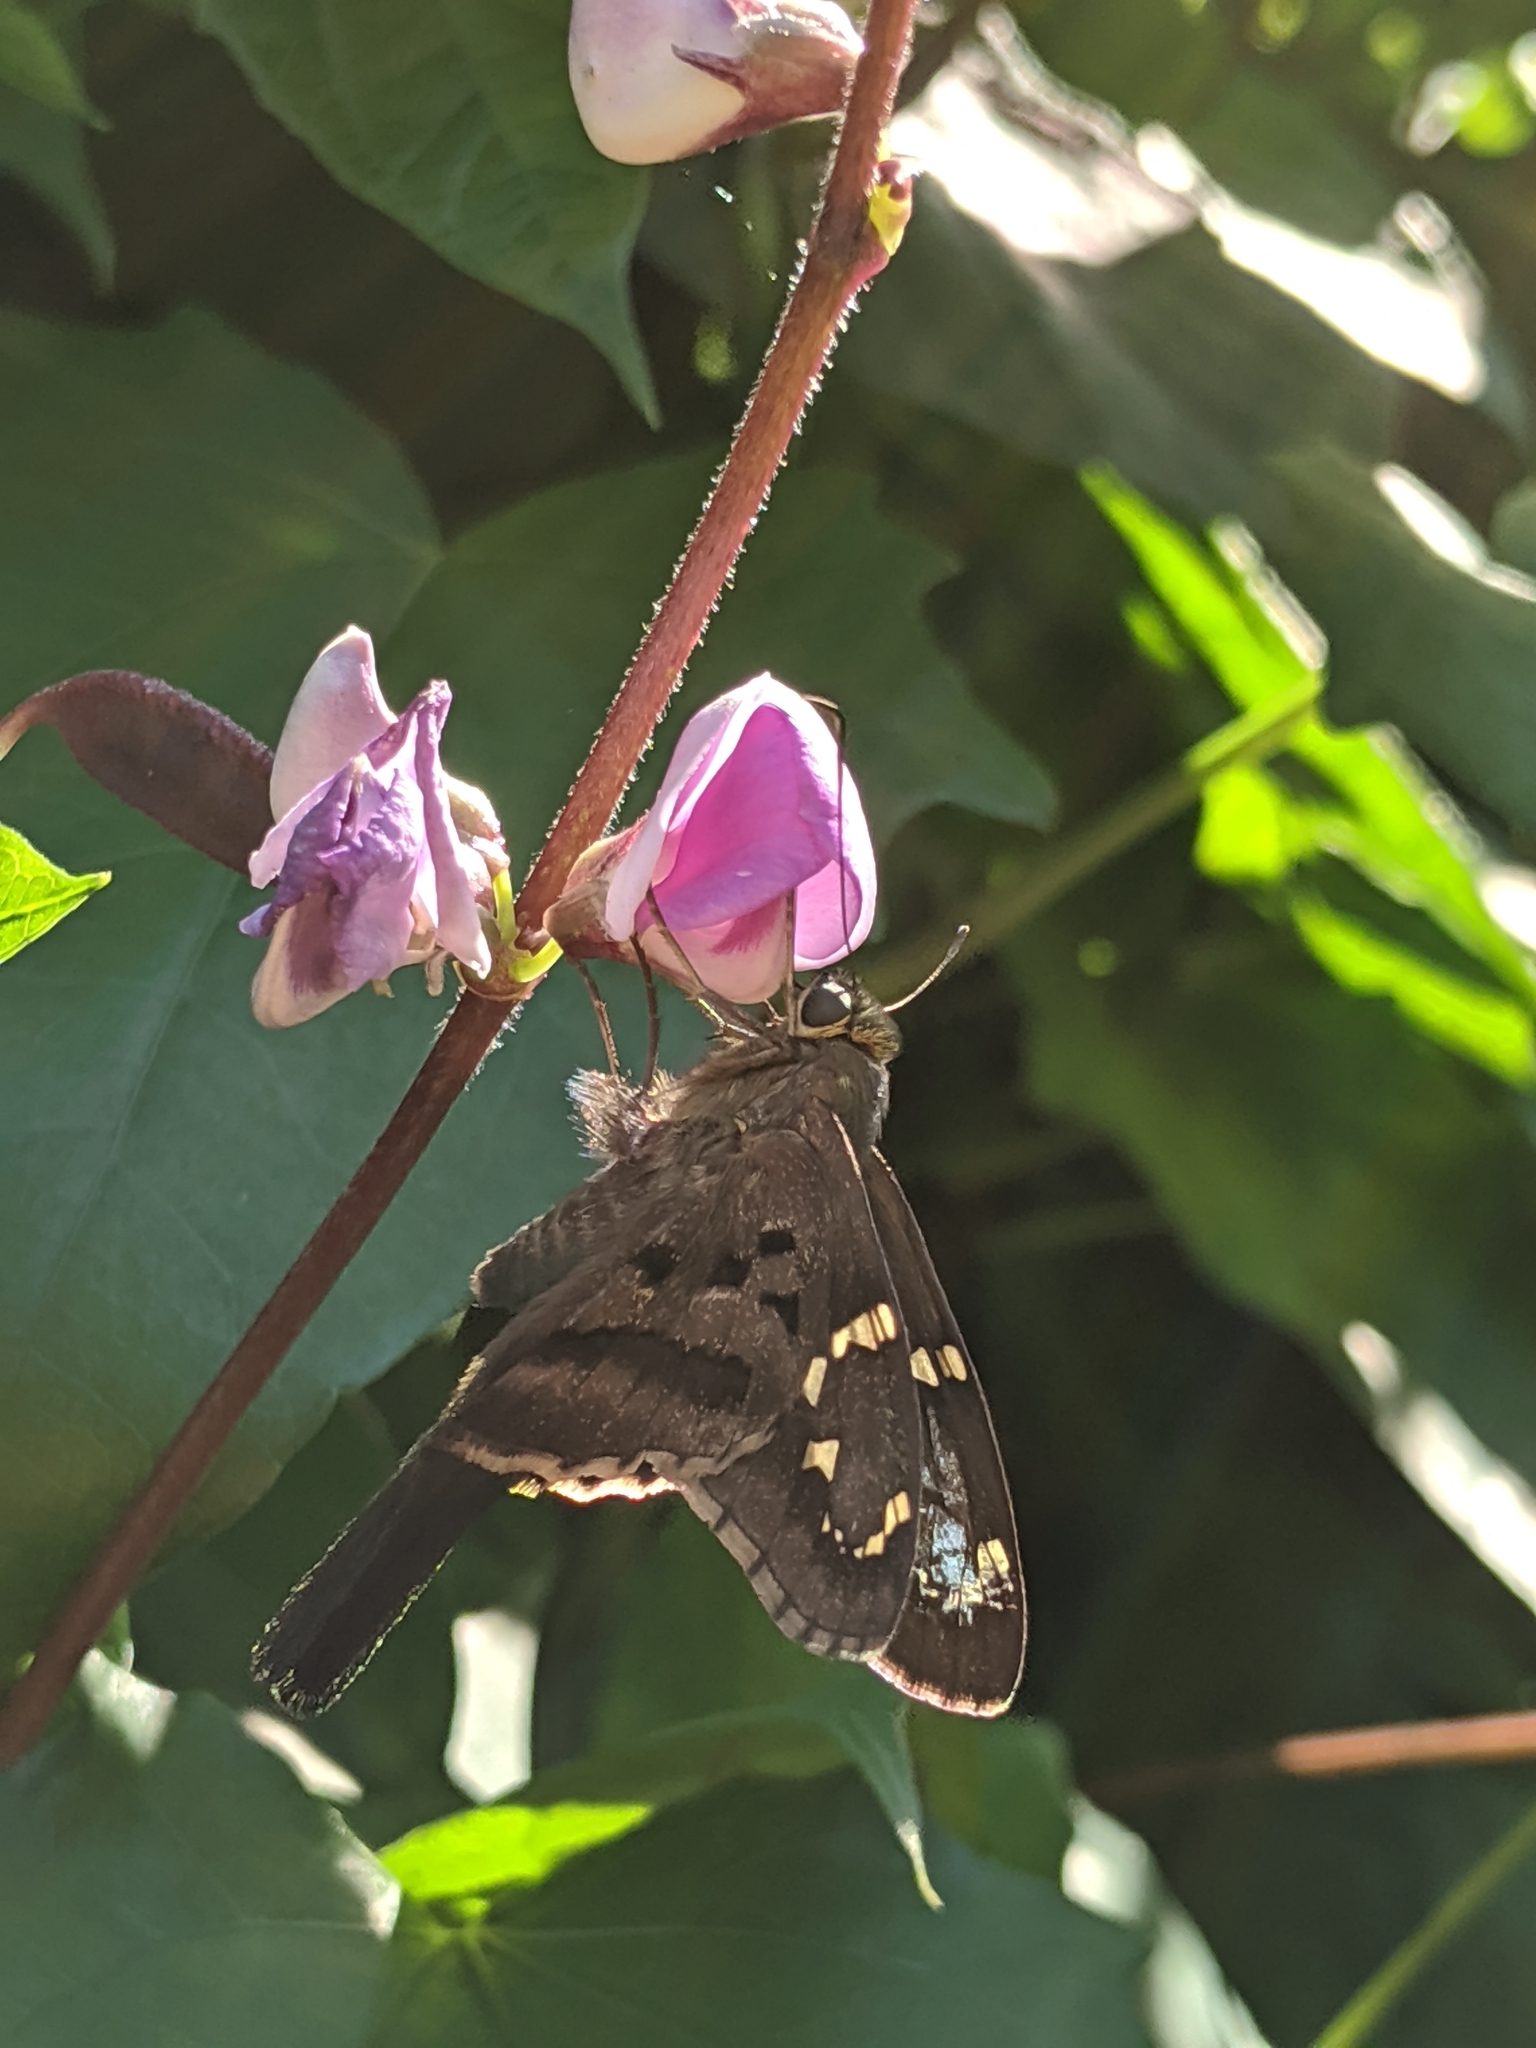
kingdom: Animalia
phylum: Arthropoda
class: Insecta
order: Lepidoptera
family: Hesperiidae
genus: Urbanus
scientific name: Urbanus proteus
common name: Long-tailed skipper
